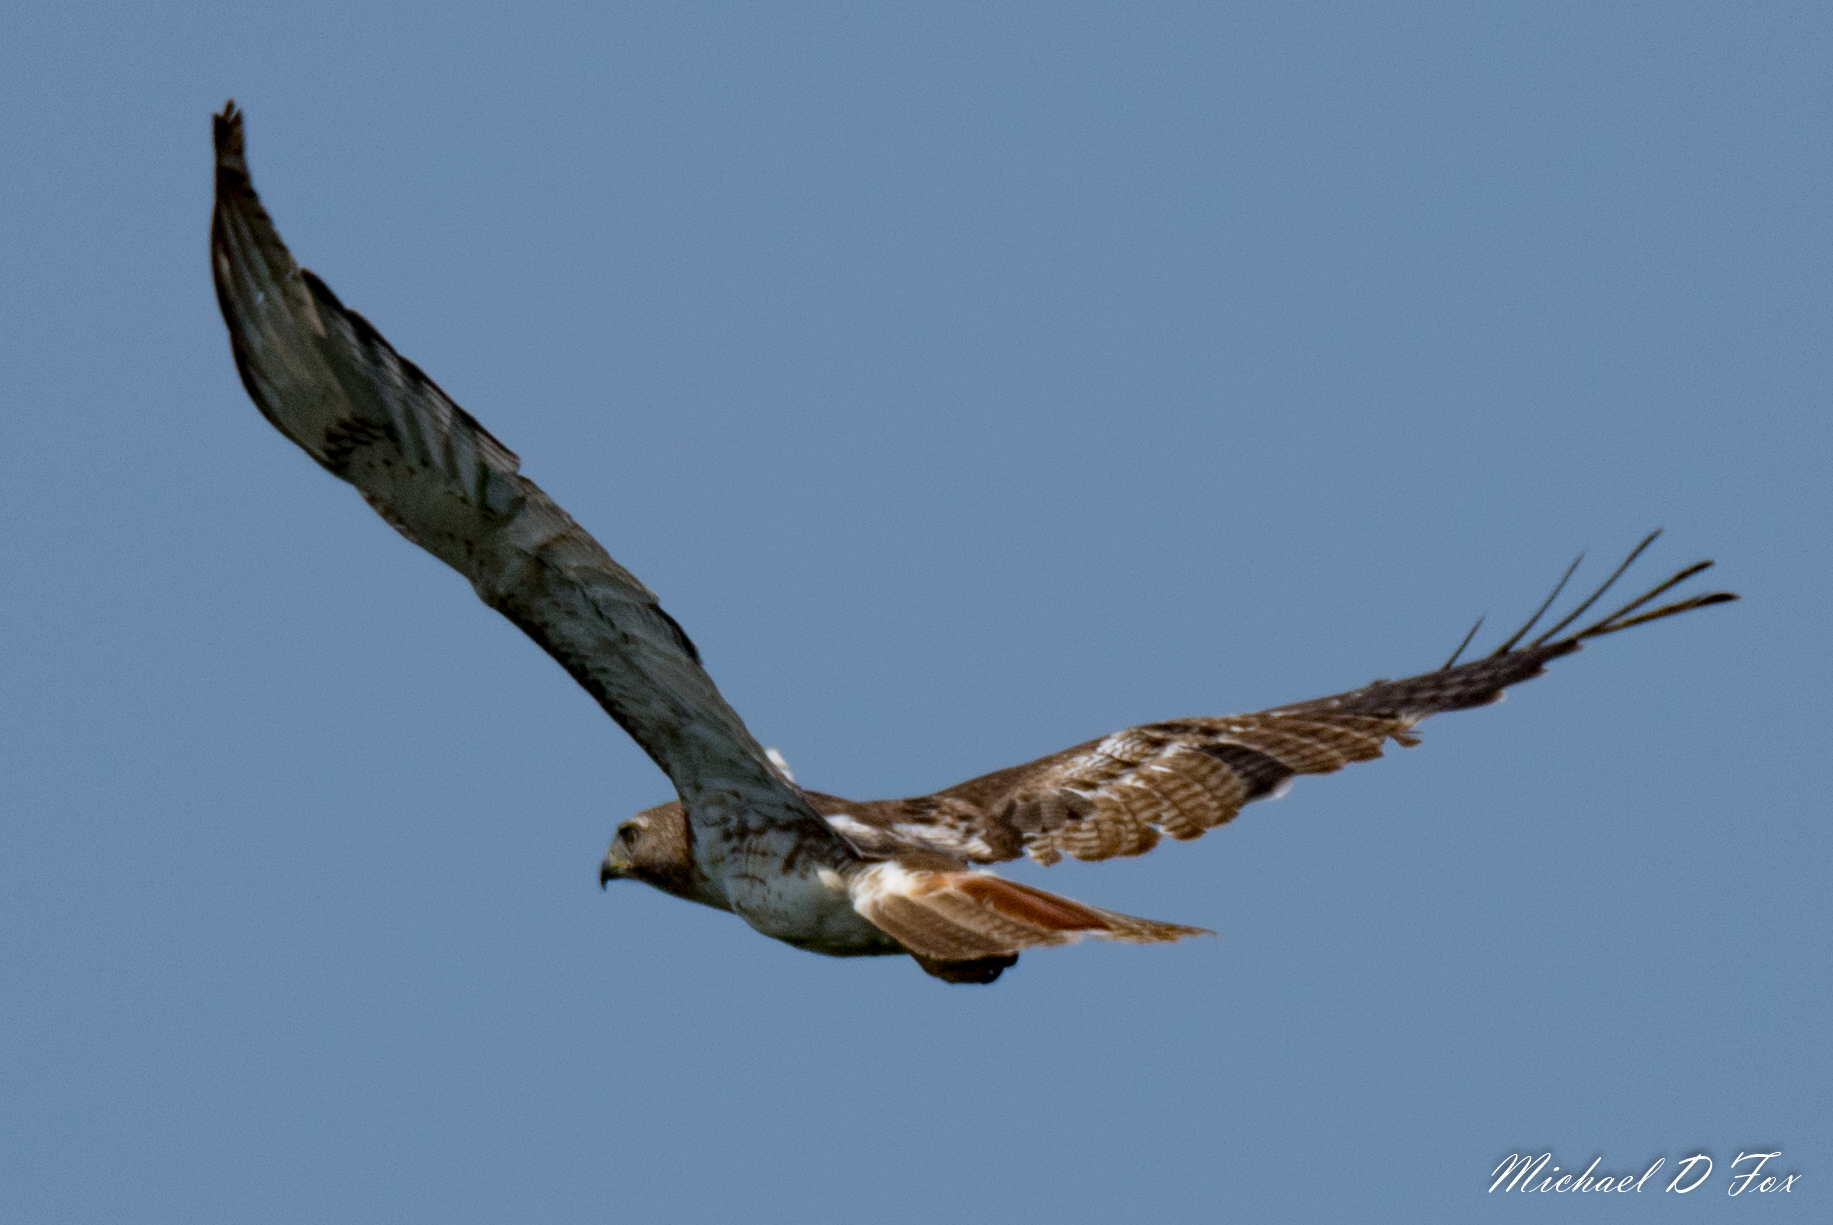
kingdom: Animalia
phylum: Chordata
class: Aves
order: Accipitriformes
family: Accipitridae
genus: Buteo
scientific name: Buteo jamaicensis
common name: Red-tailed hawk
